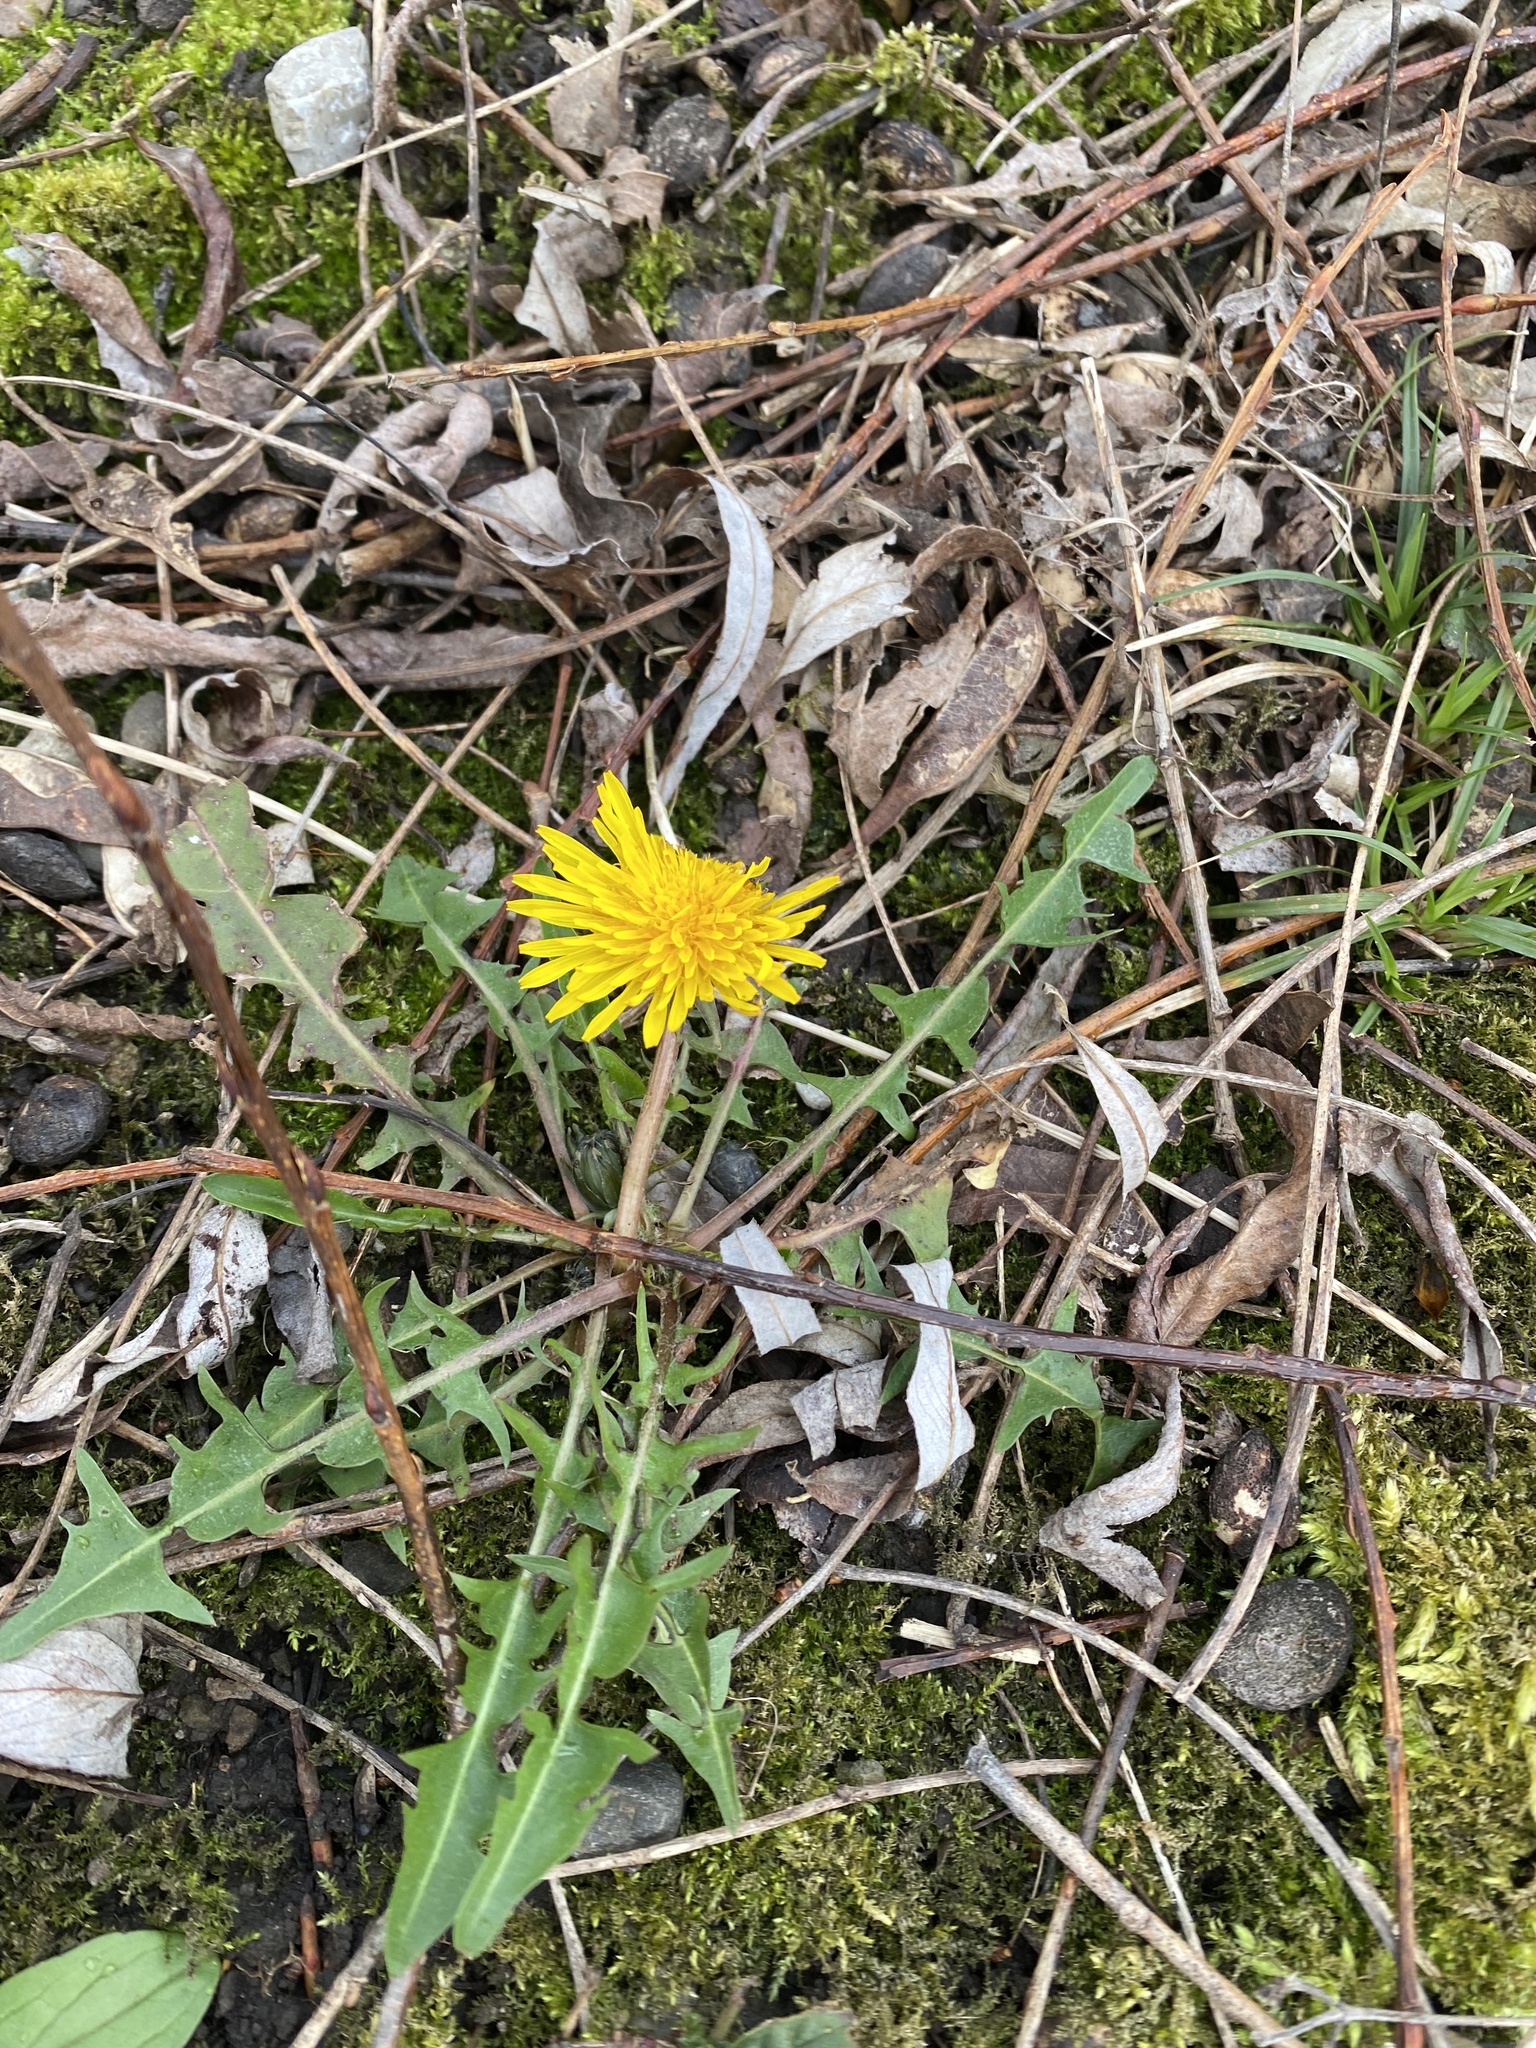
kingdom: Plantae
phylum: Tracheophyta
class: Magnoliopsida
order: Asterales
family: Asteraceae
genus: Taraxacum
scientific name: Taraxacum officinale
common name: Common dandelion
